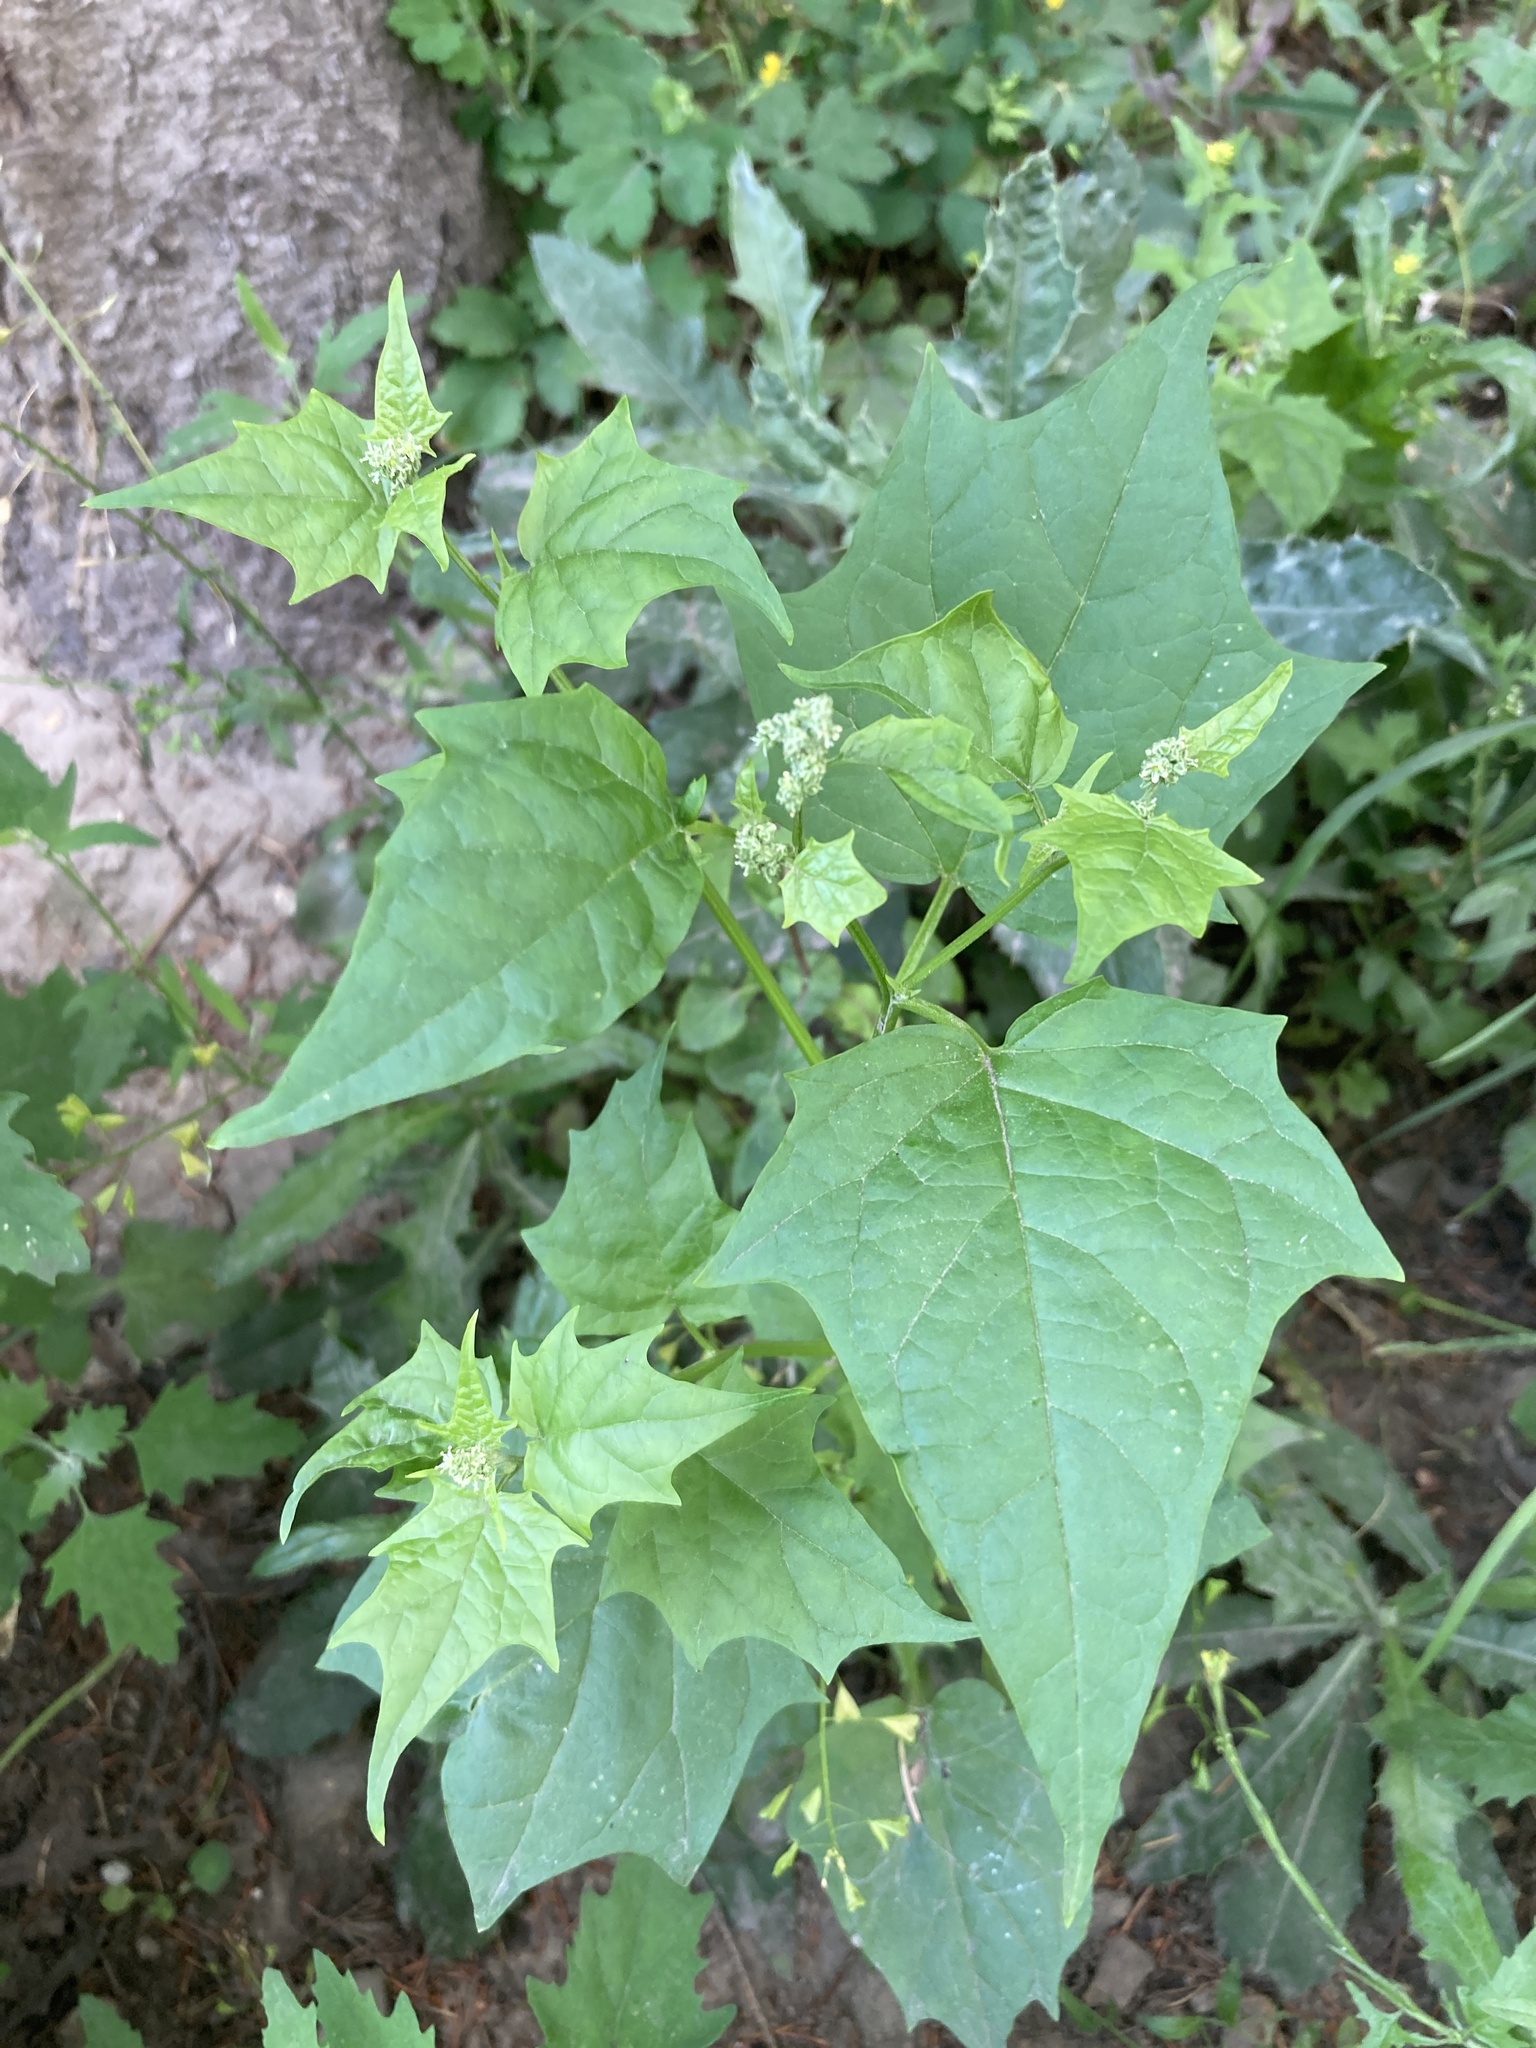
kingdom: Plantae
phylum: Tracheophyta
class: Magnoliopsida
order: Caryophyllales
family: Amaranthaceae
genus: Chenopodiastrum
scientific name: Chenopodiastrum hybridum
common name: Mapleleaf goosefoot
